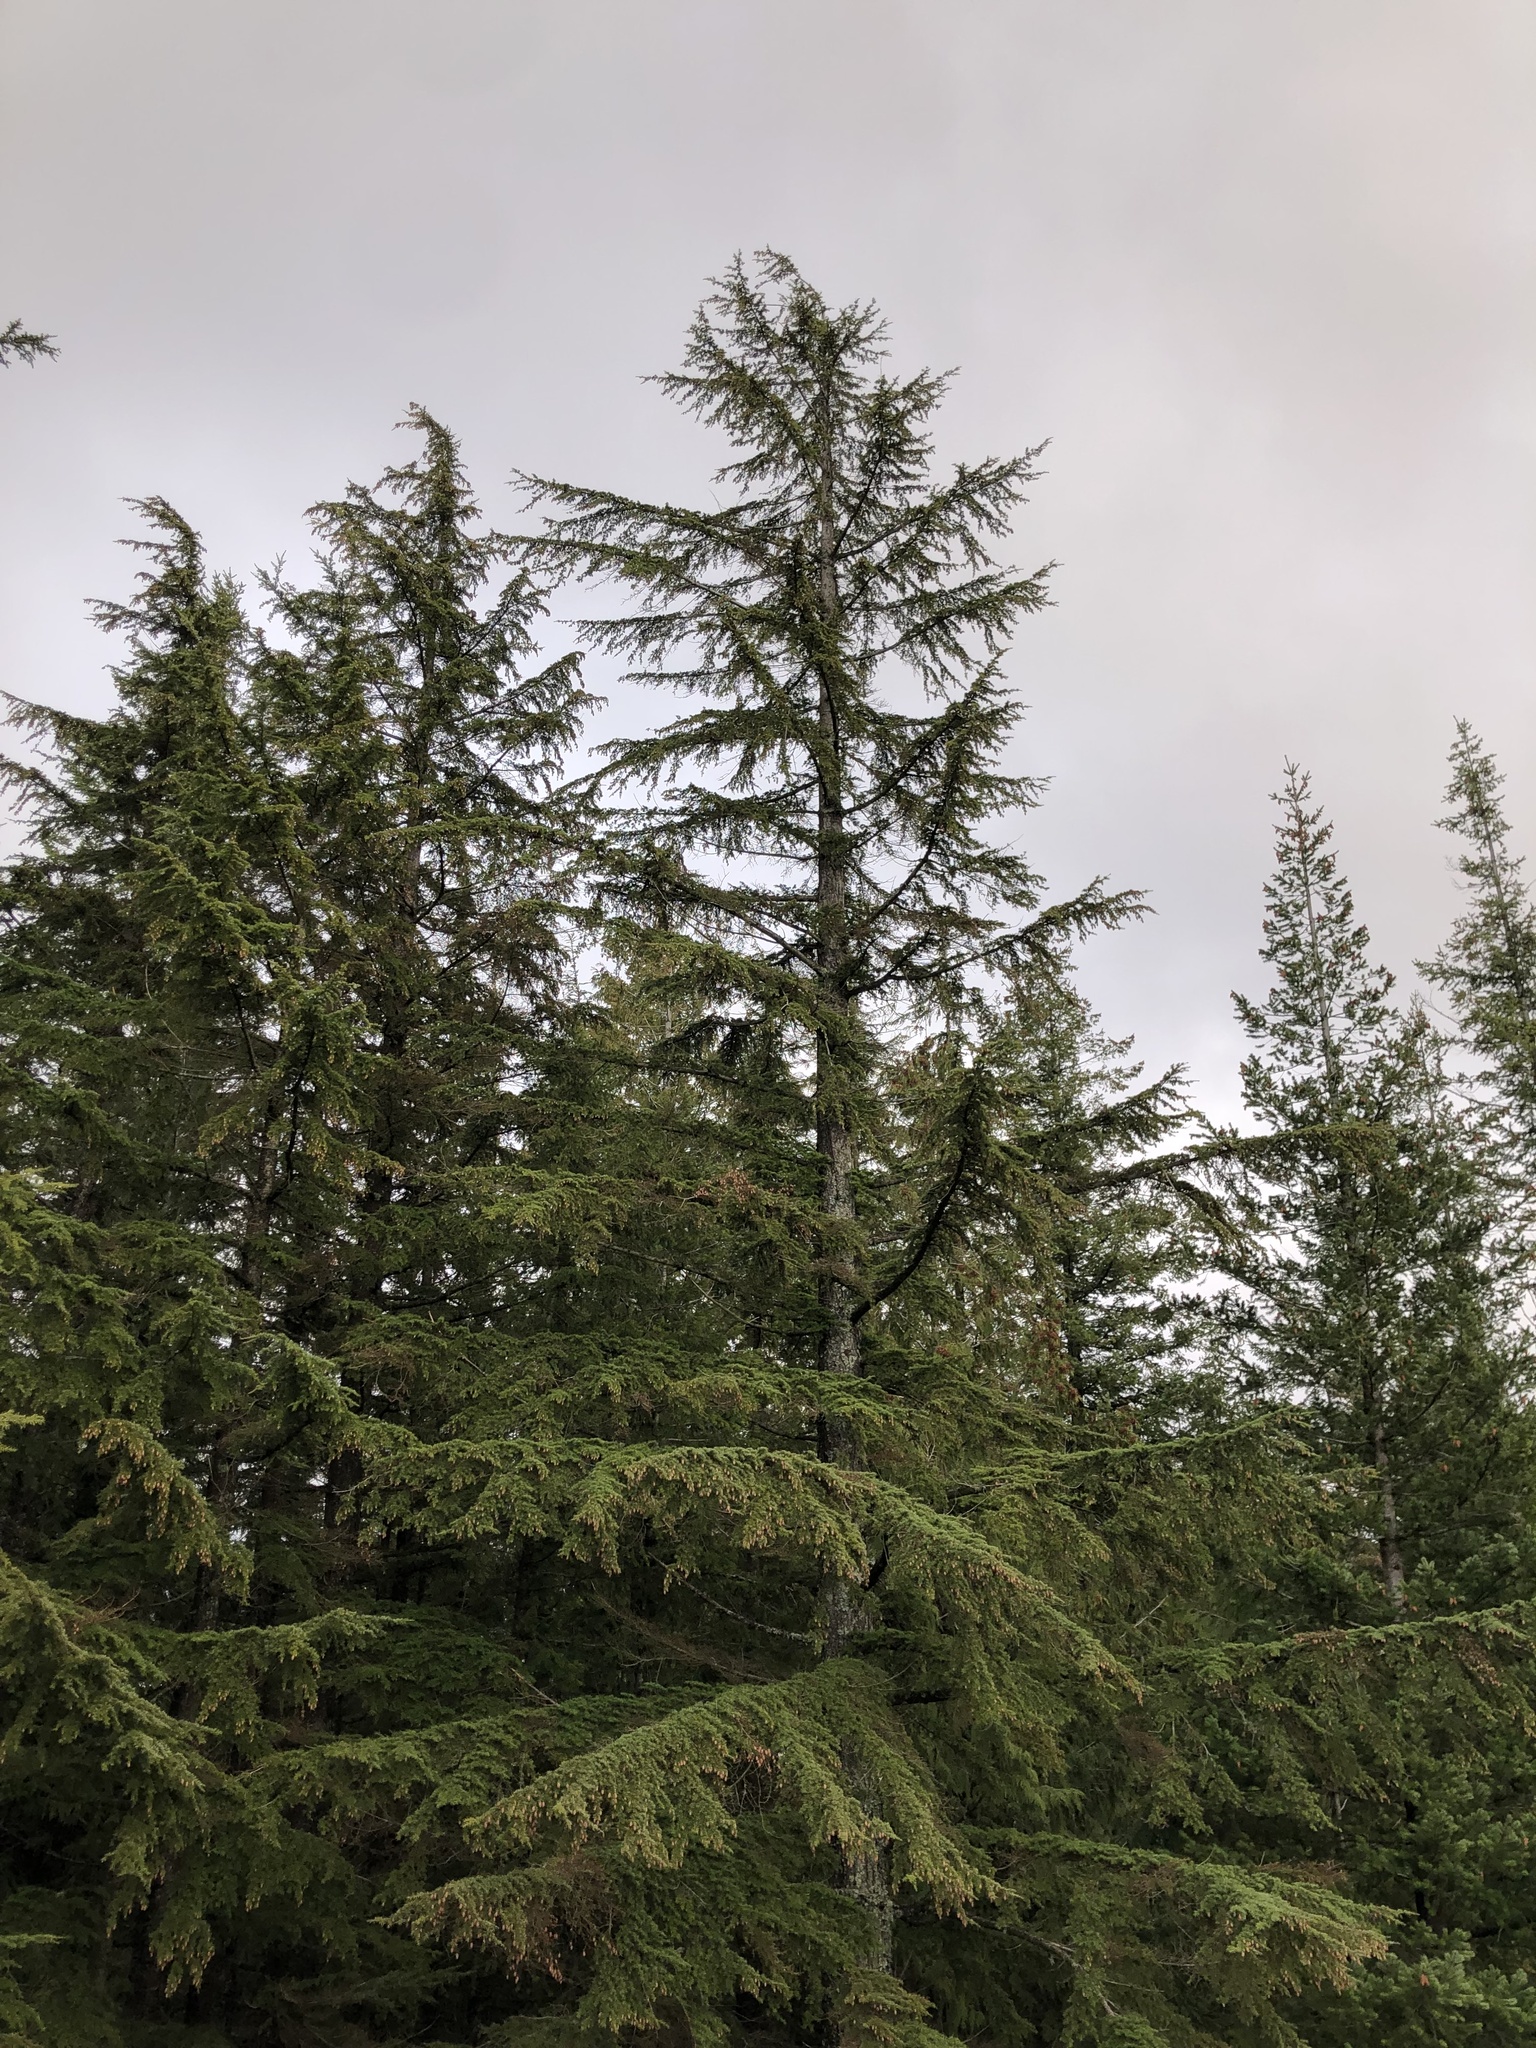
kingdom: Plantae
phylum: Tracheophyta
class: Pinopsida
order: Pinales
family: Pinaceae
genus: Tsuga
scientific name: Tsuga heterophylla
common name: Western hemlock
